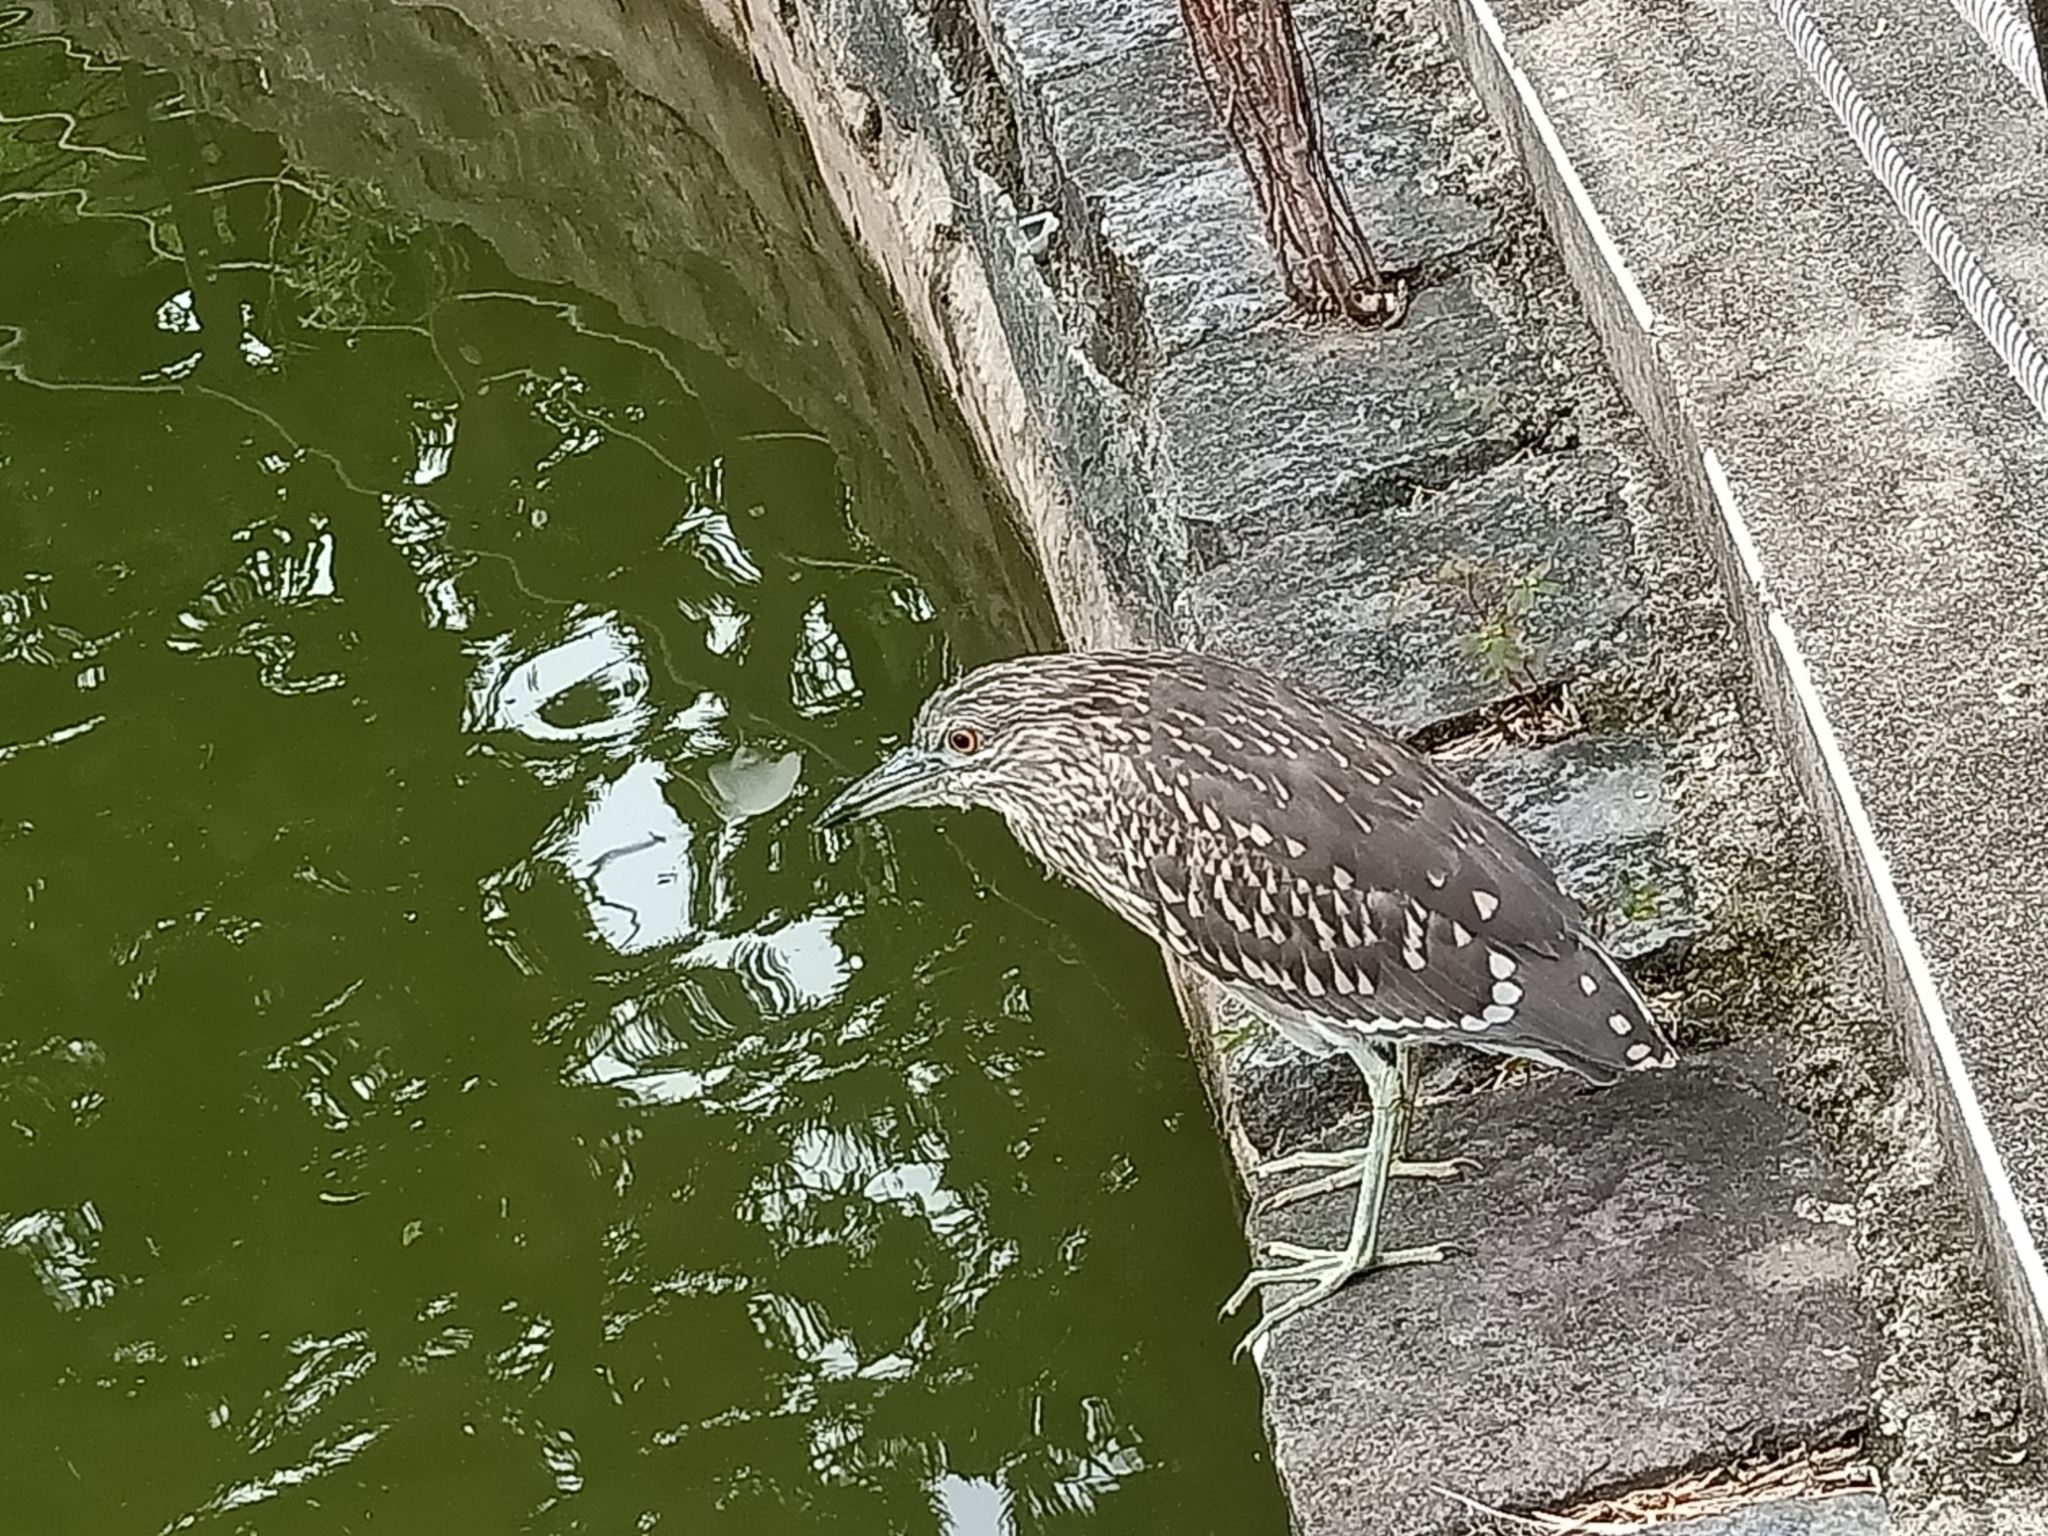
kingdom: Animalia
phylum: Chordata
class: Aves
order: Pelecaniformes
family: Ardeidae
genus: Nycticorax
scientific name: Nycticorax nycticorax
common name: Black-crowned night heron
